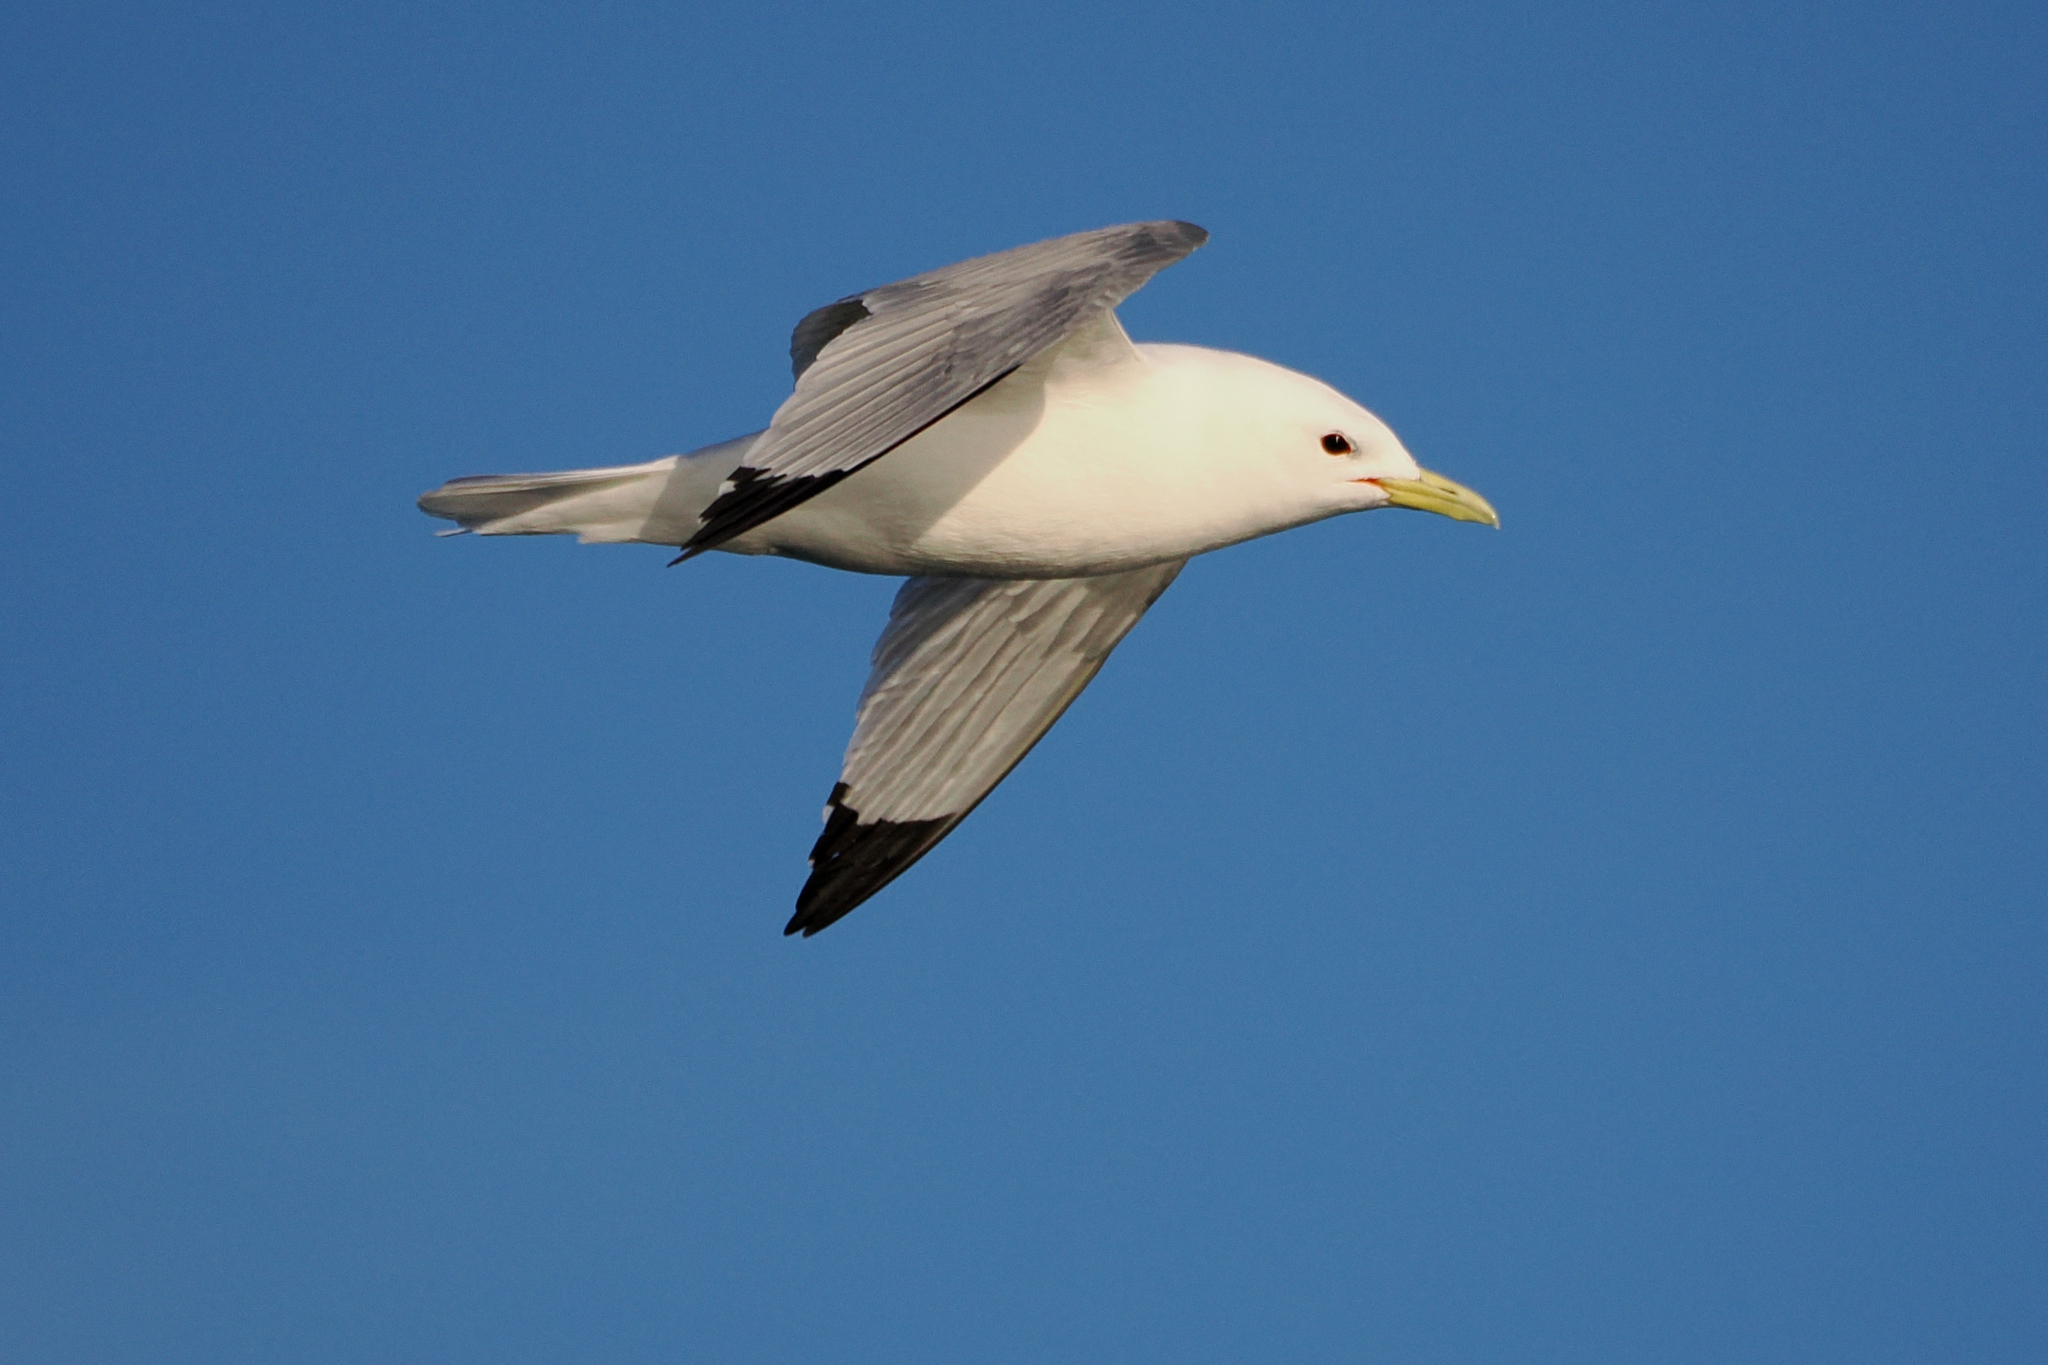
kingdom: Animalia
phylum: Chordata
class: Aves
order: Charadriiformes
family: Laridae
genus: Rissa
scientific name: Rissa tridactyla
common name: Black-legged kittiwake
